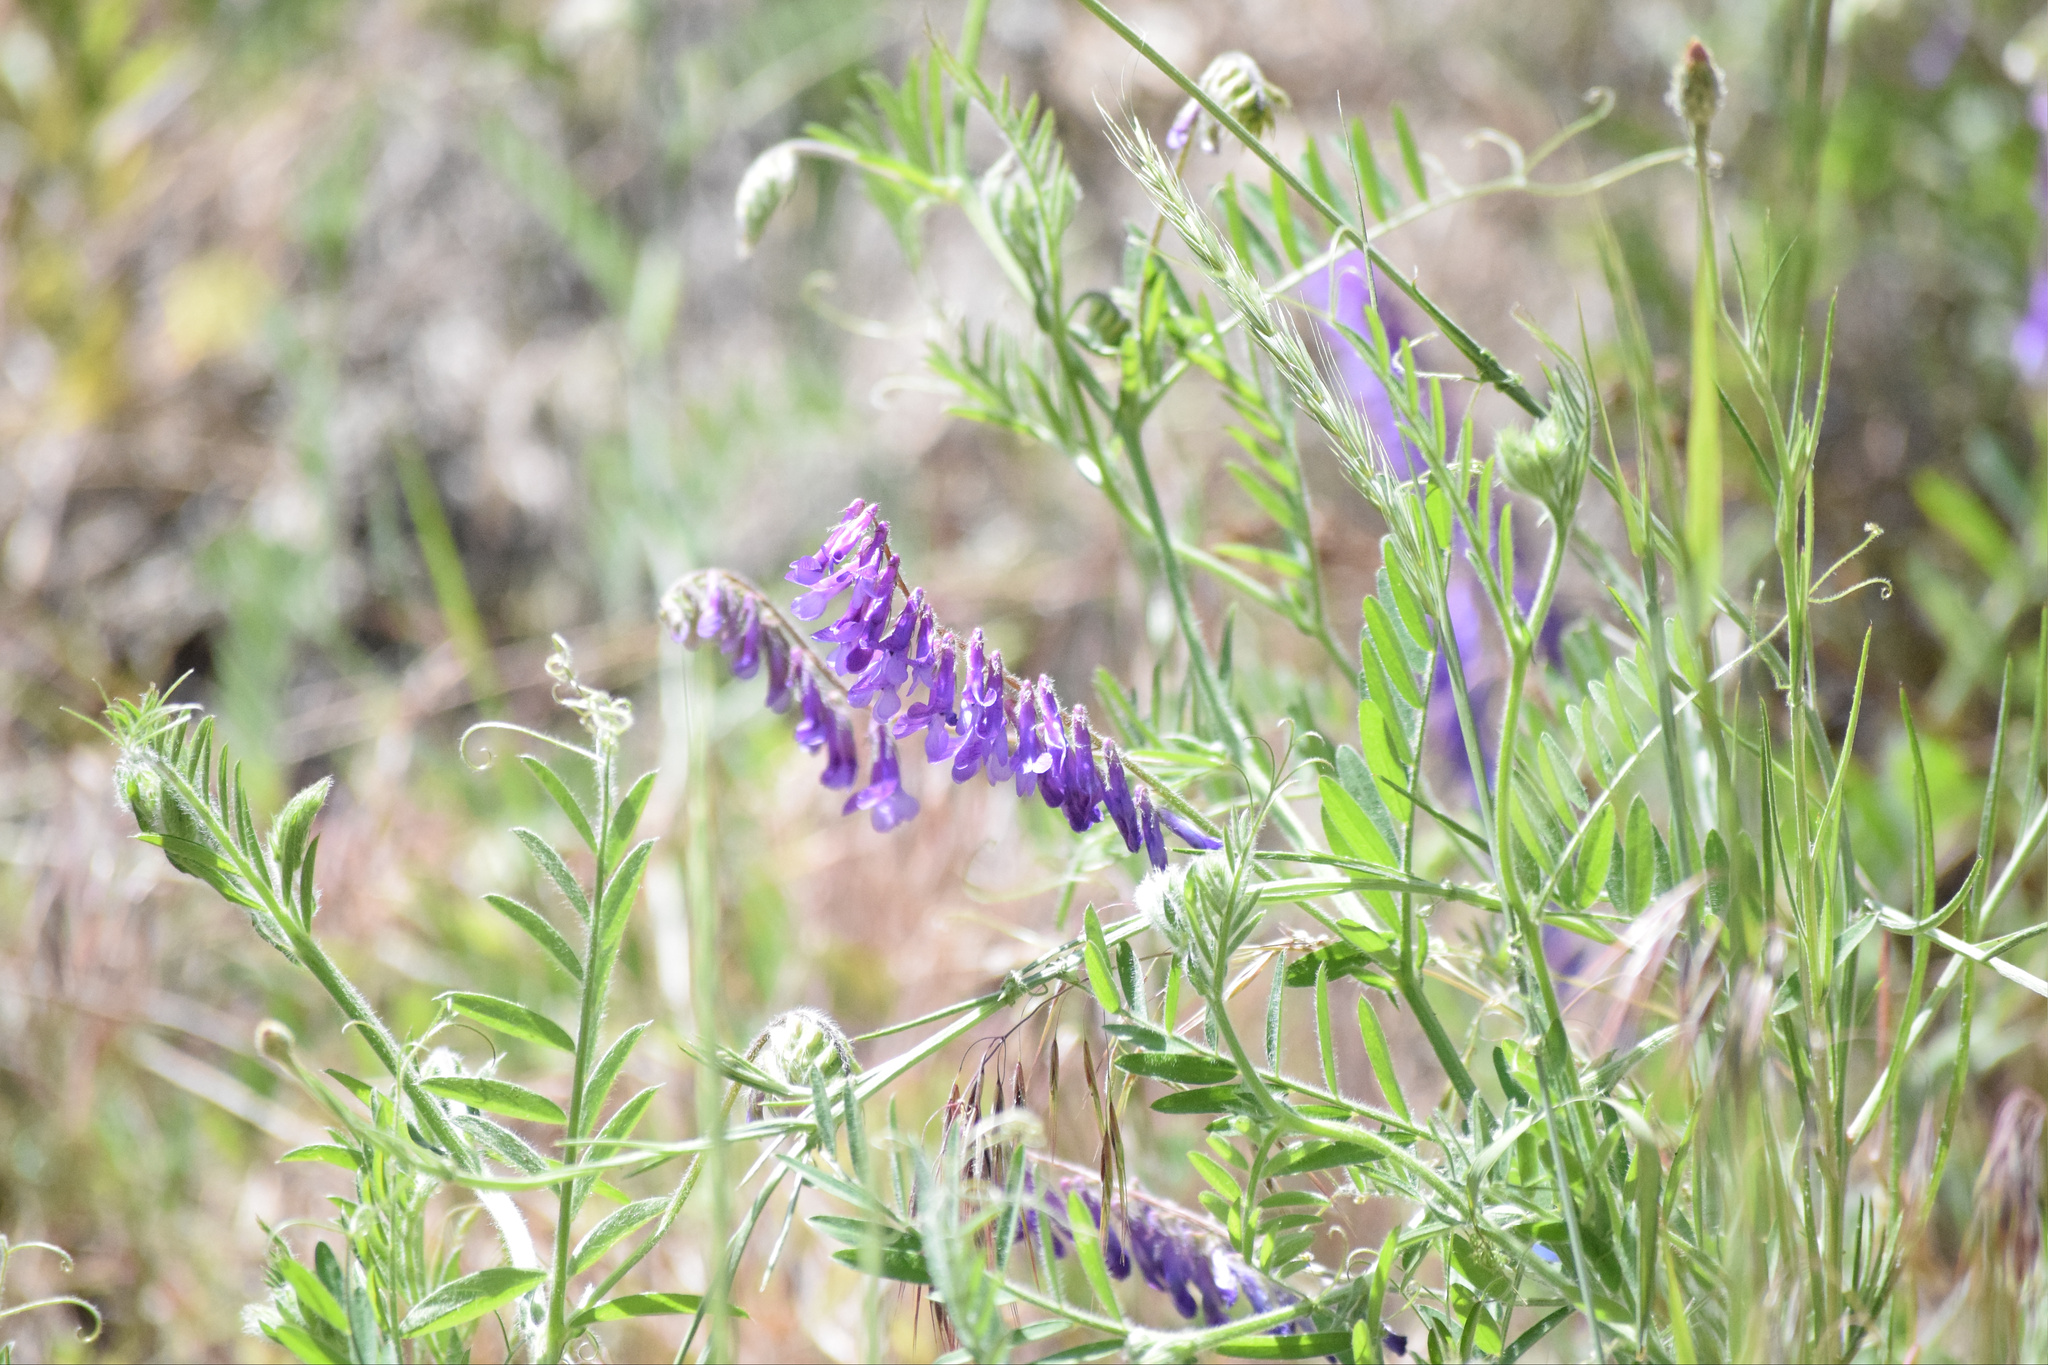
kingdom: Plantae
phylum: Tracheophyta
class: Magnoliopsida
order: Fabales
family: Fabaceae
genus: Vicia
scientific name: Vicia villosa
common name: Fodder vetch
